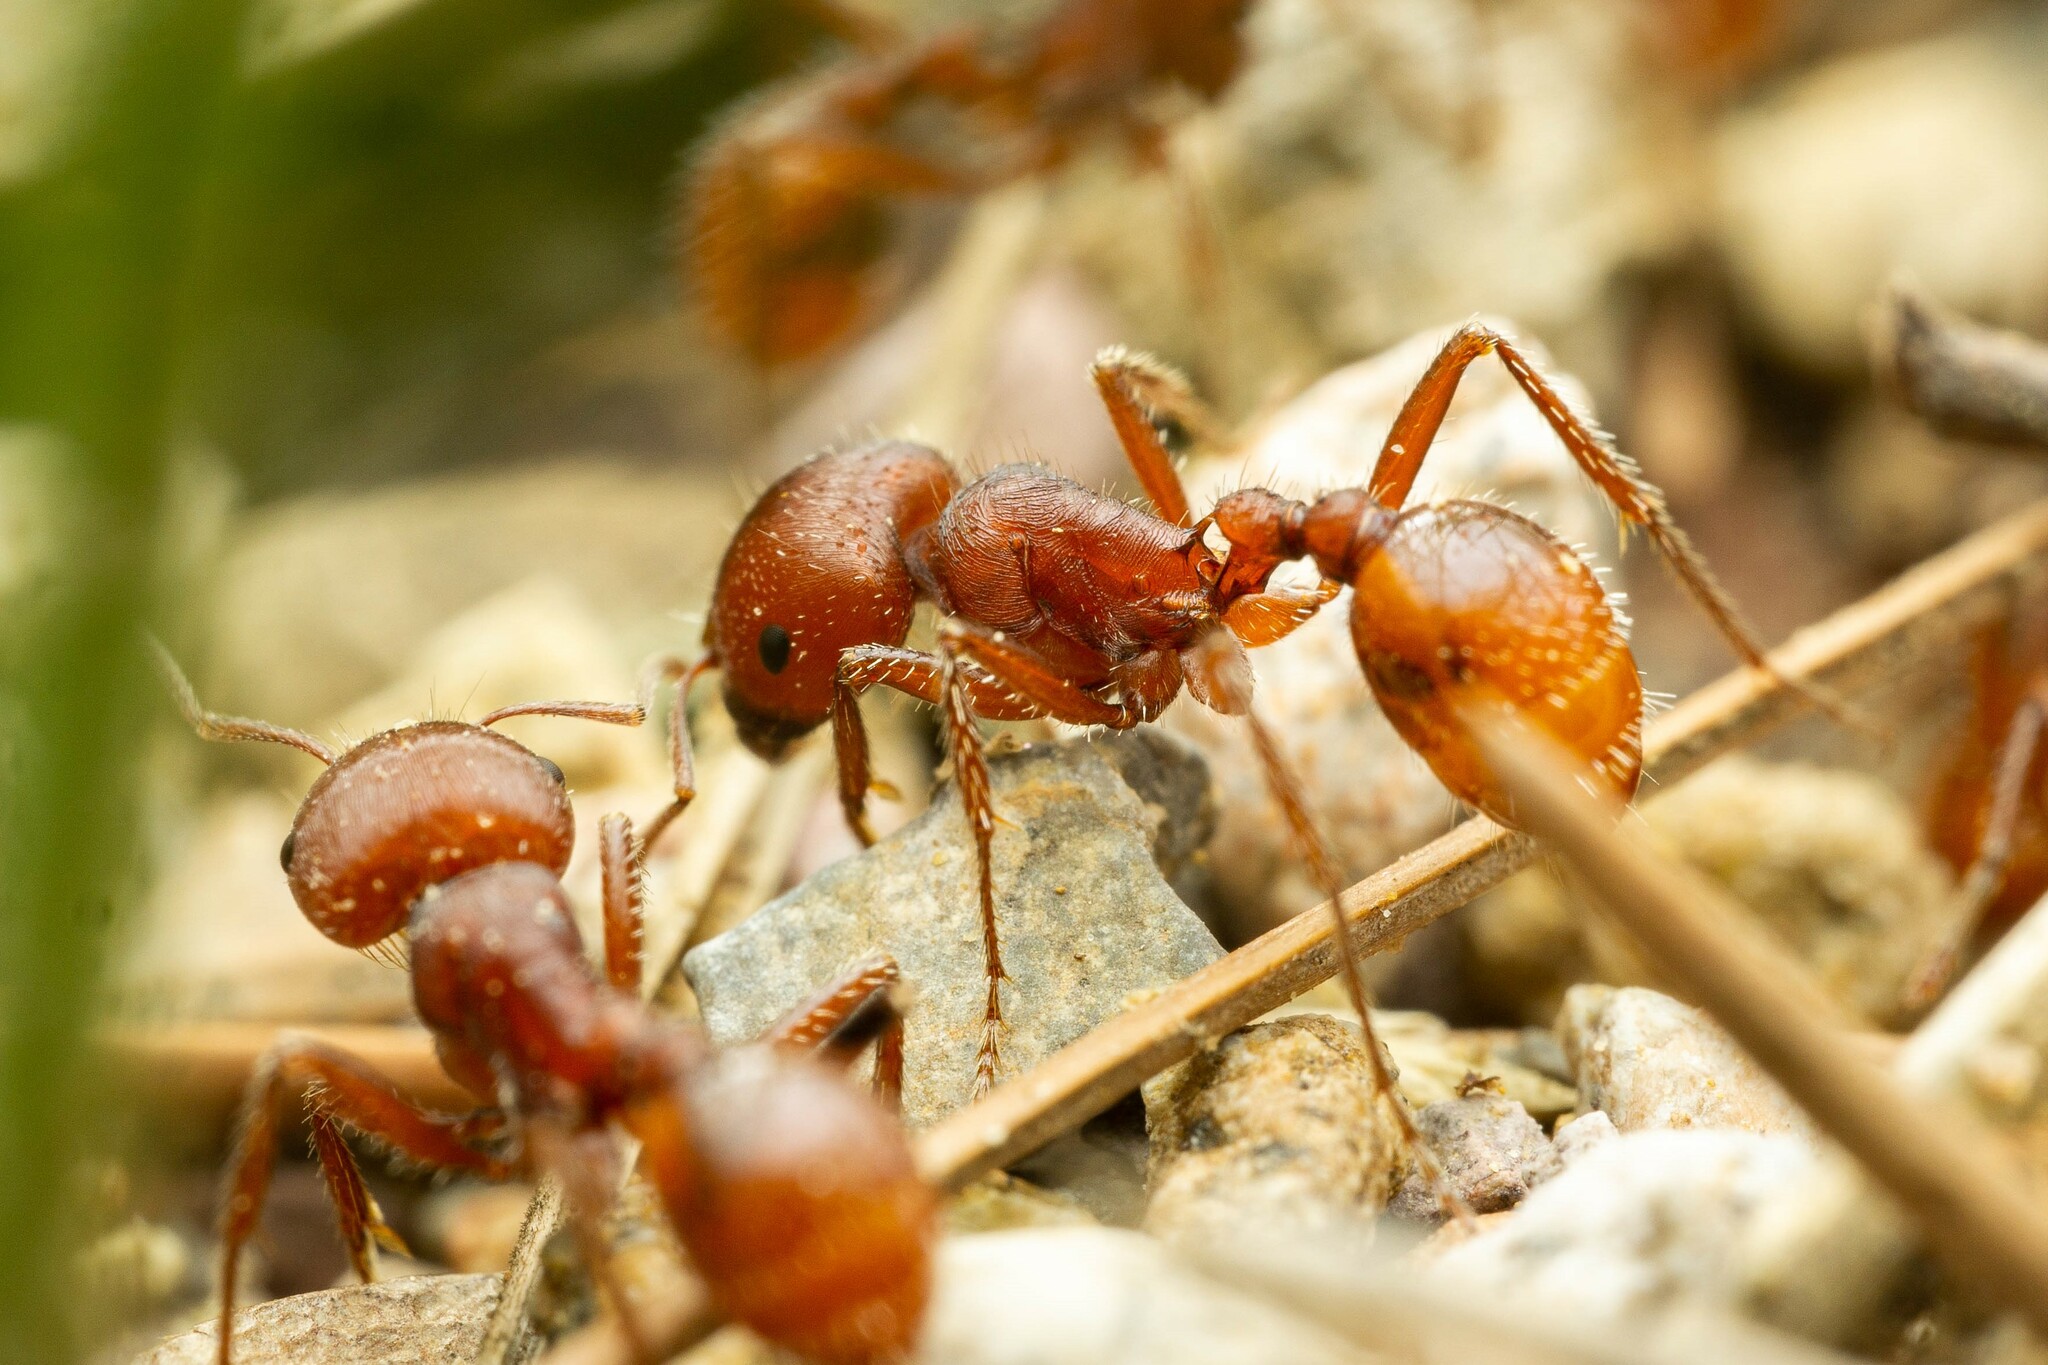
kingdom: Animalia
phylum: Arthropoda
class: Insecta
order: Hymenoptera
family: Formicidae
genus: Pogonomyrmex
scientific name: Pogonomyrmex barbatus
